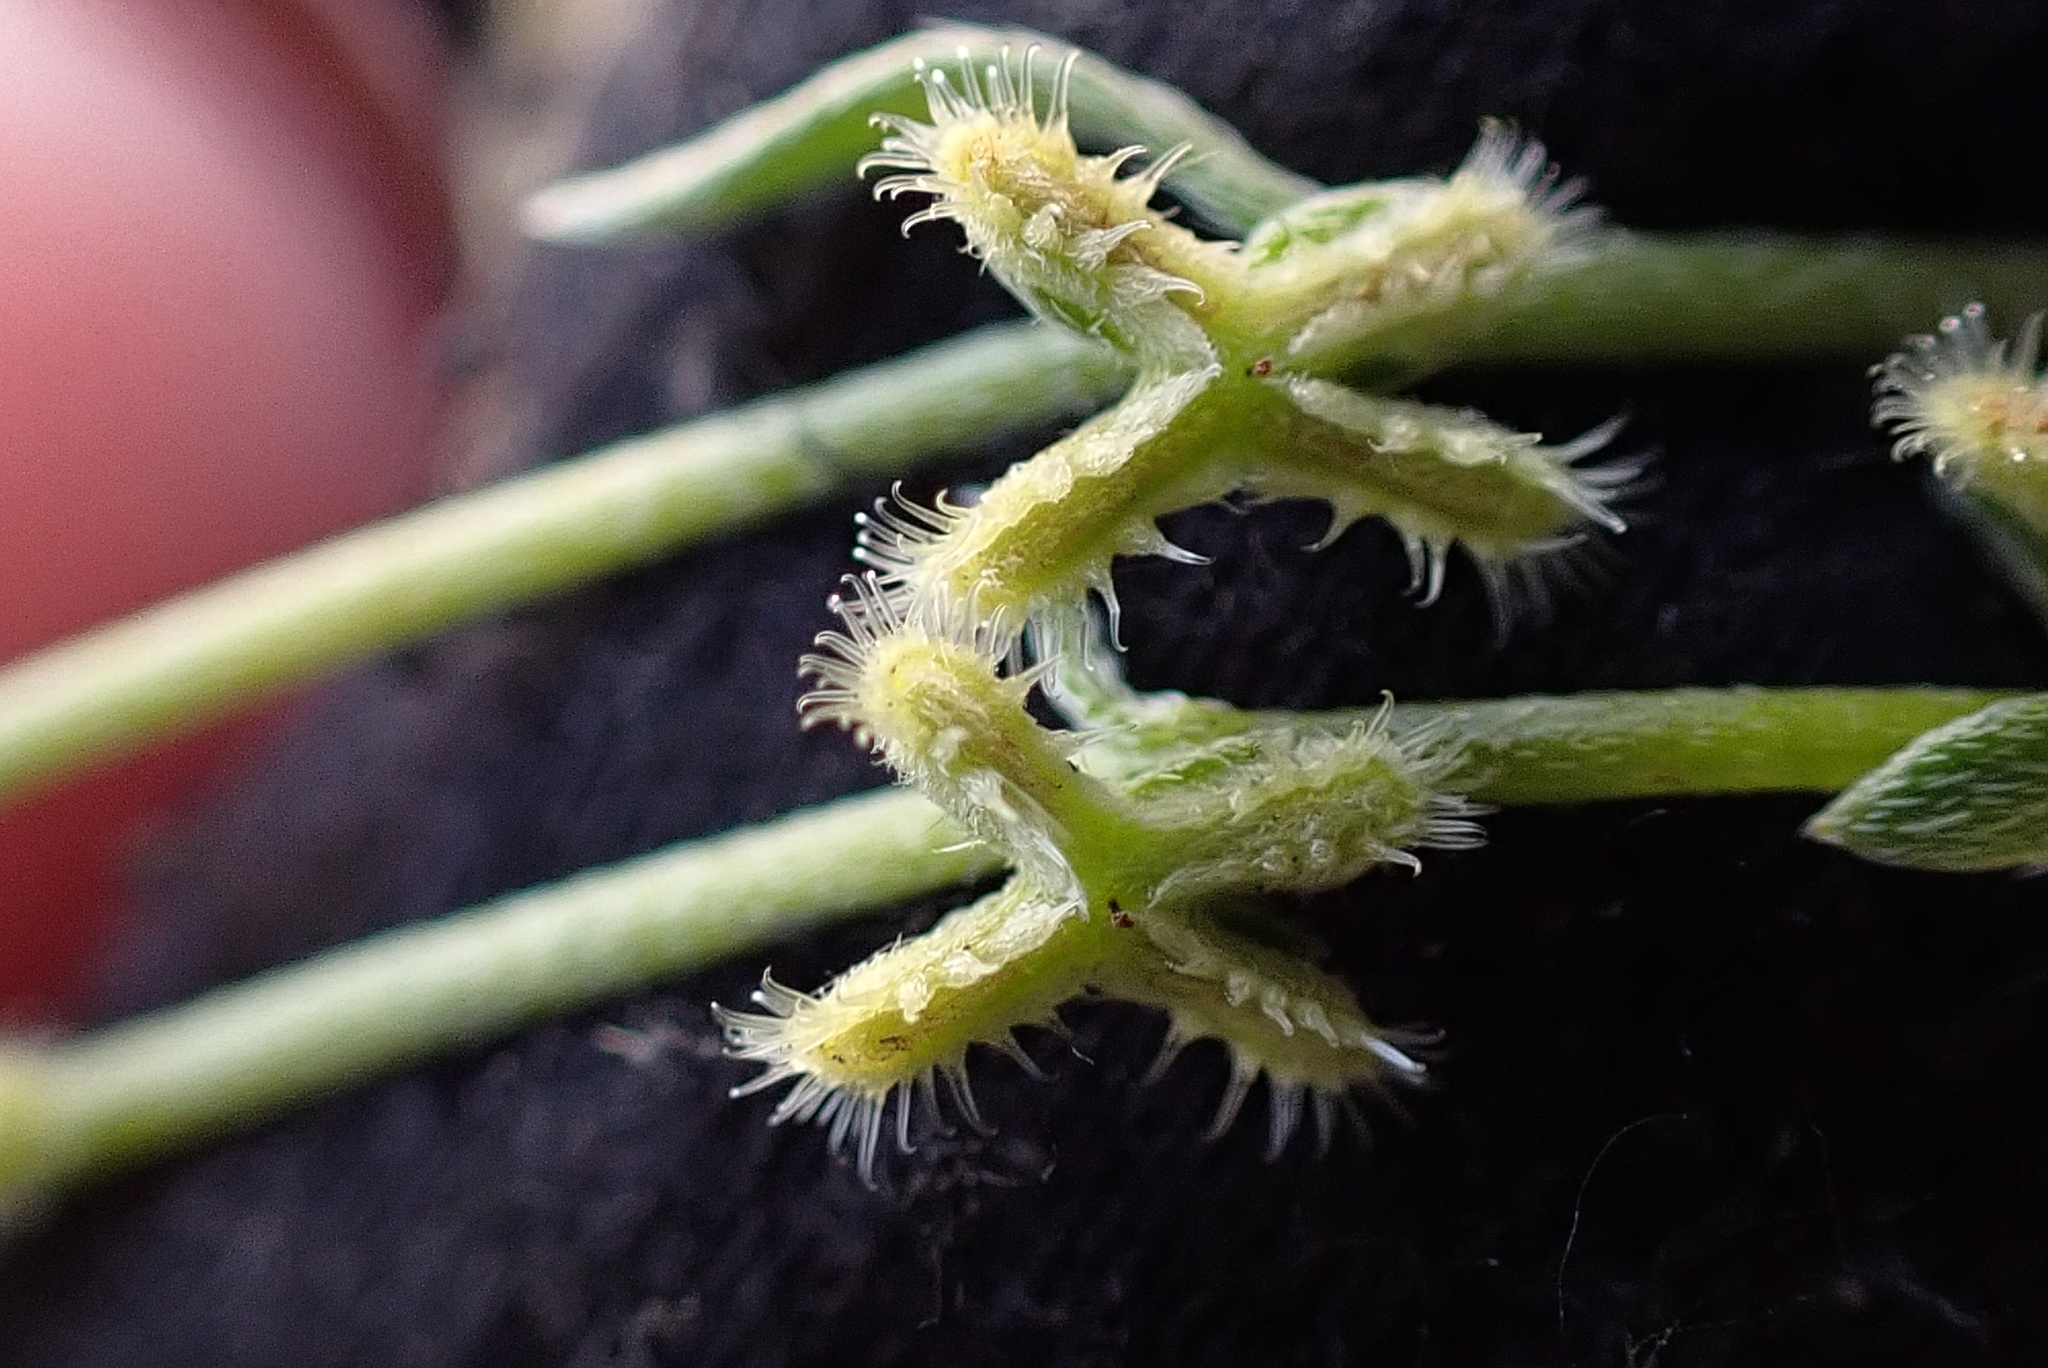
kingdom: Plantae
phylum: Tracheophyta
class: Magnoliopsida
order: Boraginales
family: Boraginaceae
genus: Pectocarya
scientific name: Pectocarya linearis
